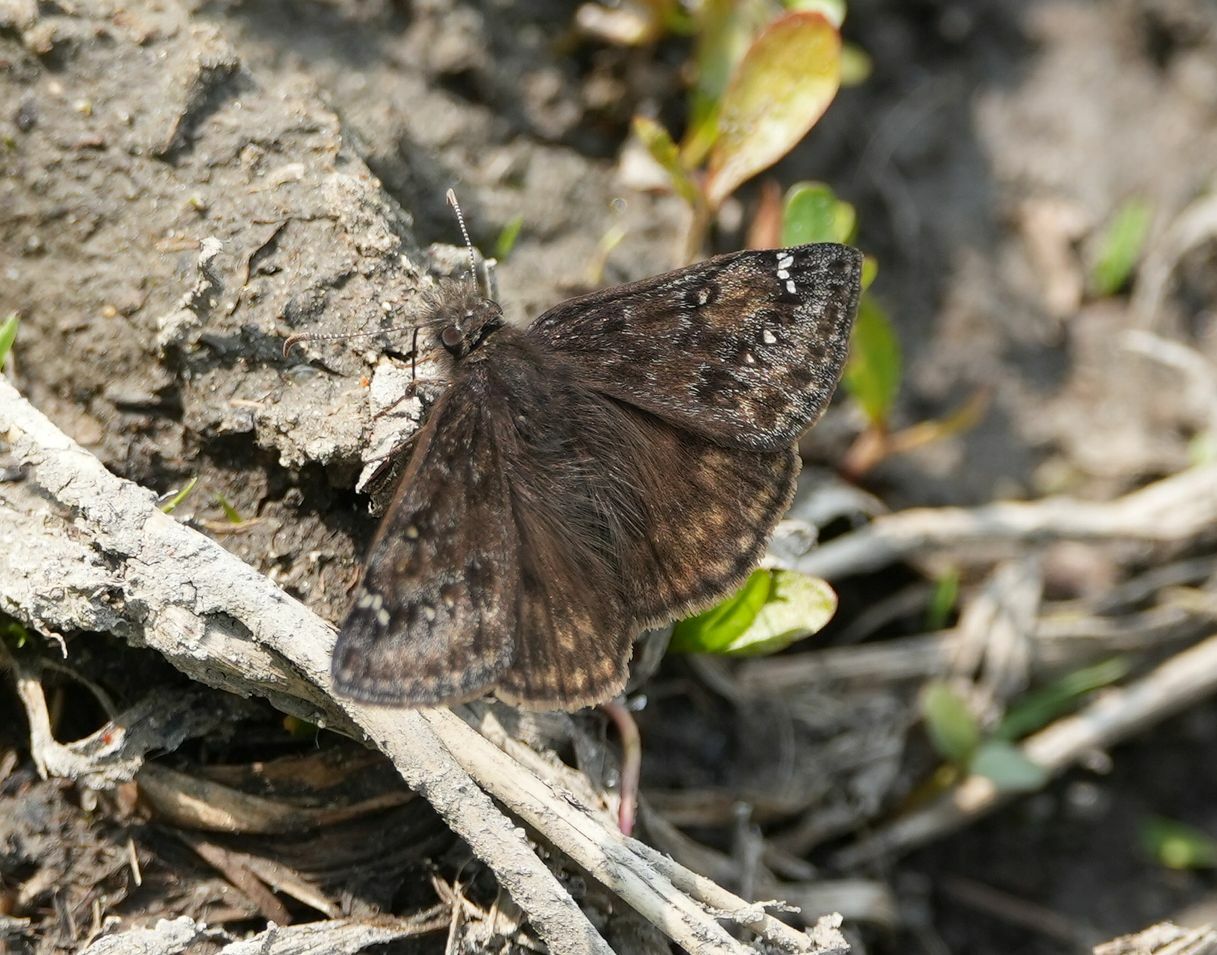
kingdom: Animalia
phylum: Arthropoda
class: Insecta
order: Lepidoptera
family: Hesperiidae
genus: Erynnis
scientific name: Erynnis juvenalis
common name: Juvenal's duskywing
